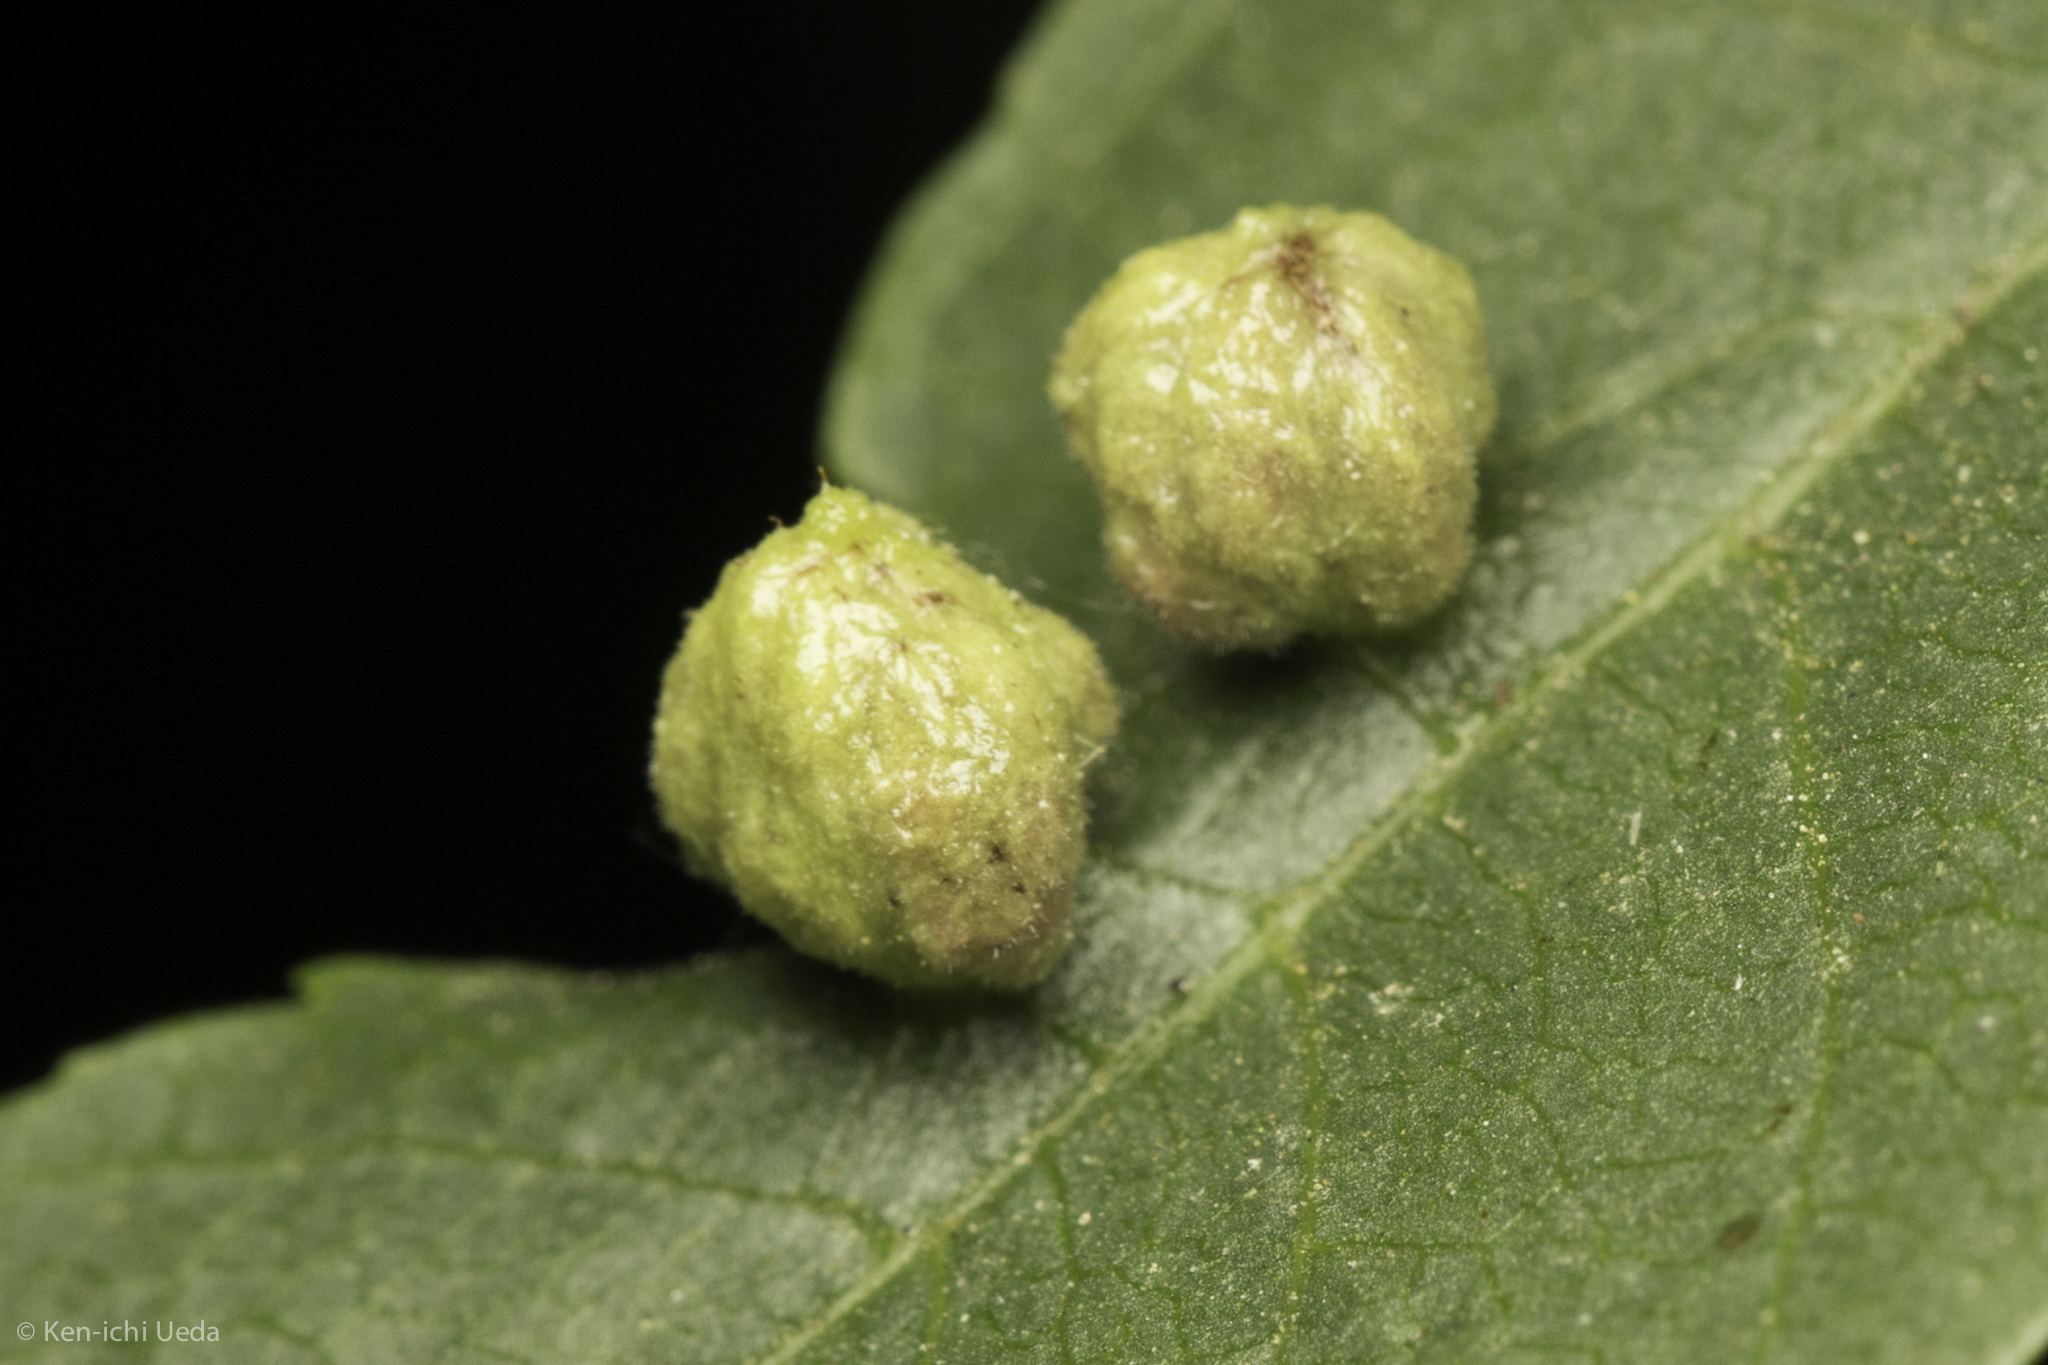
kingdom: Animalia
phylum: Arthropoda
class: Arachnida
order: Trombidiformes
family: Eriophyidae
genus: Aceria
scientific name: Aceria brachytarsus
